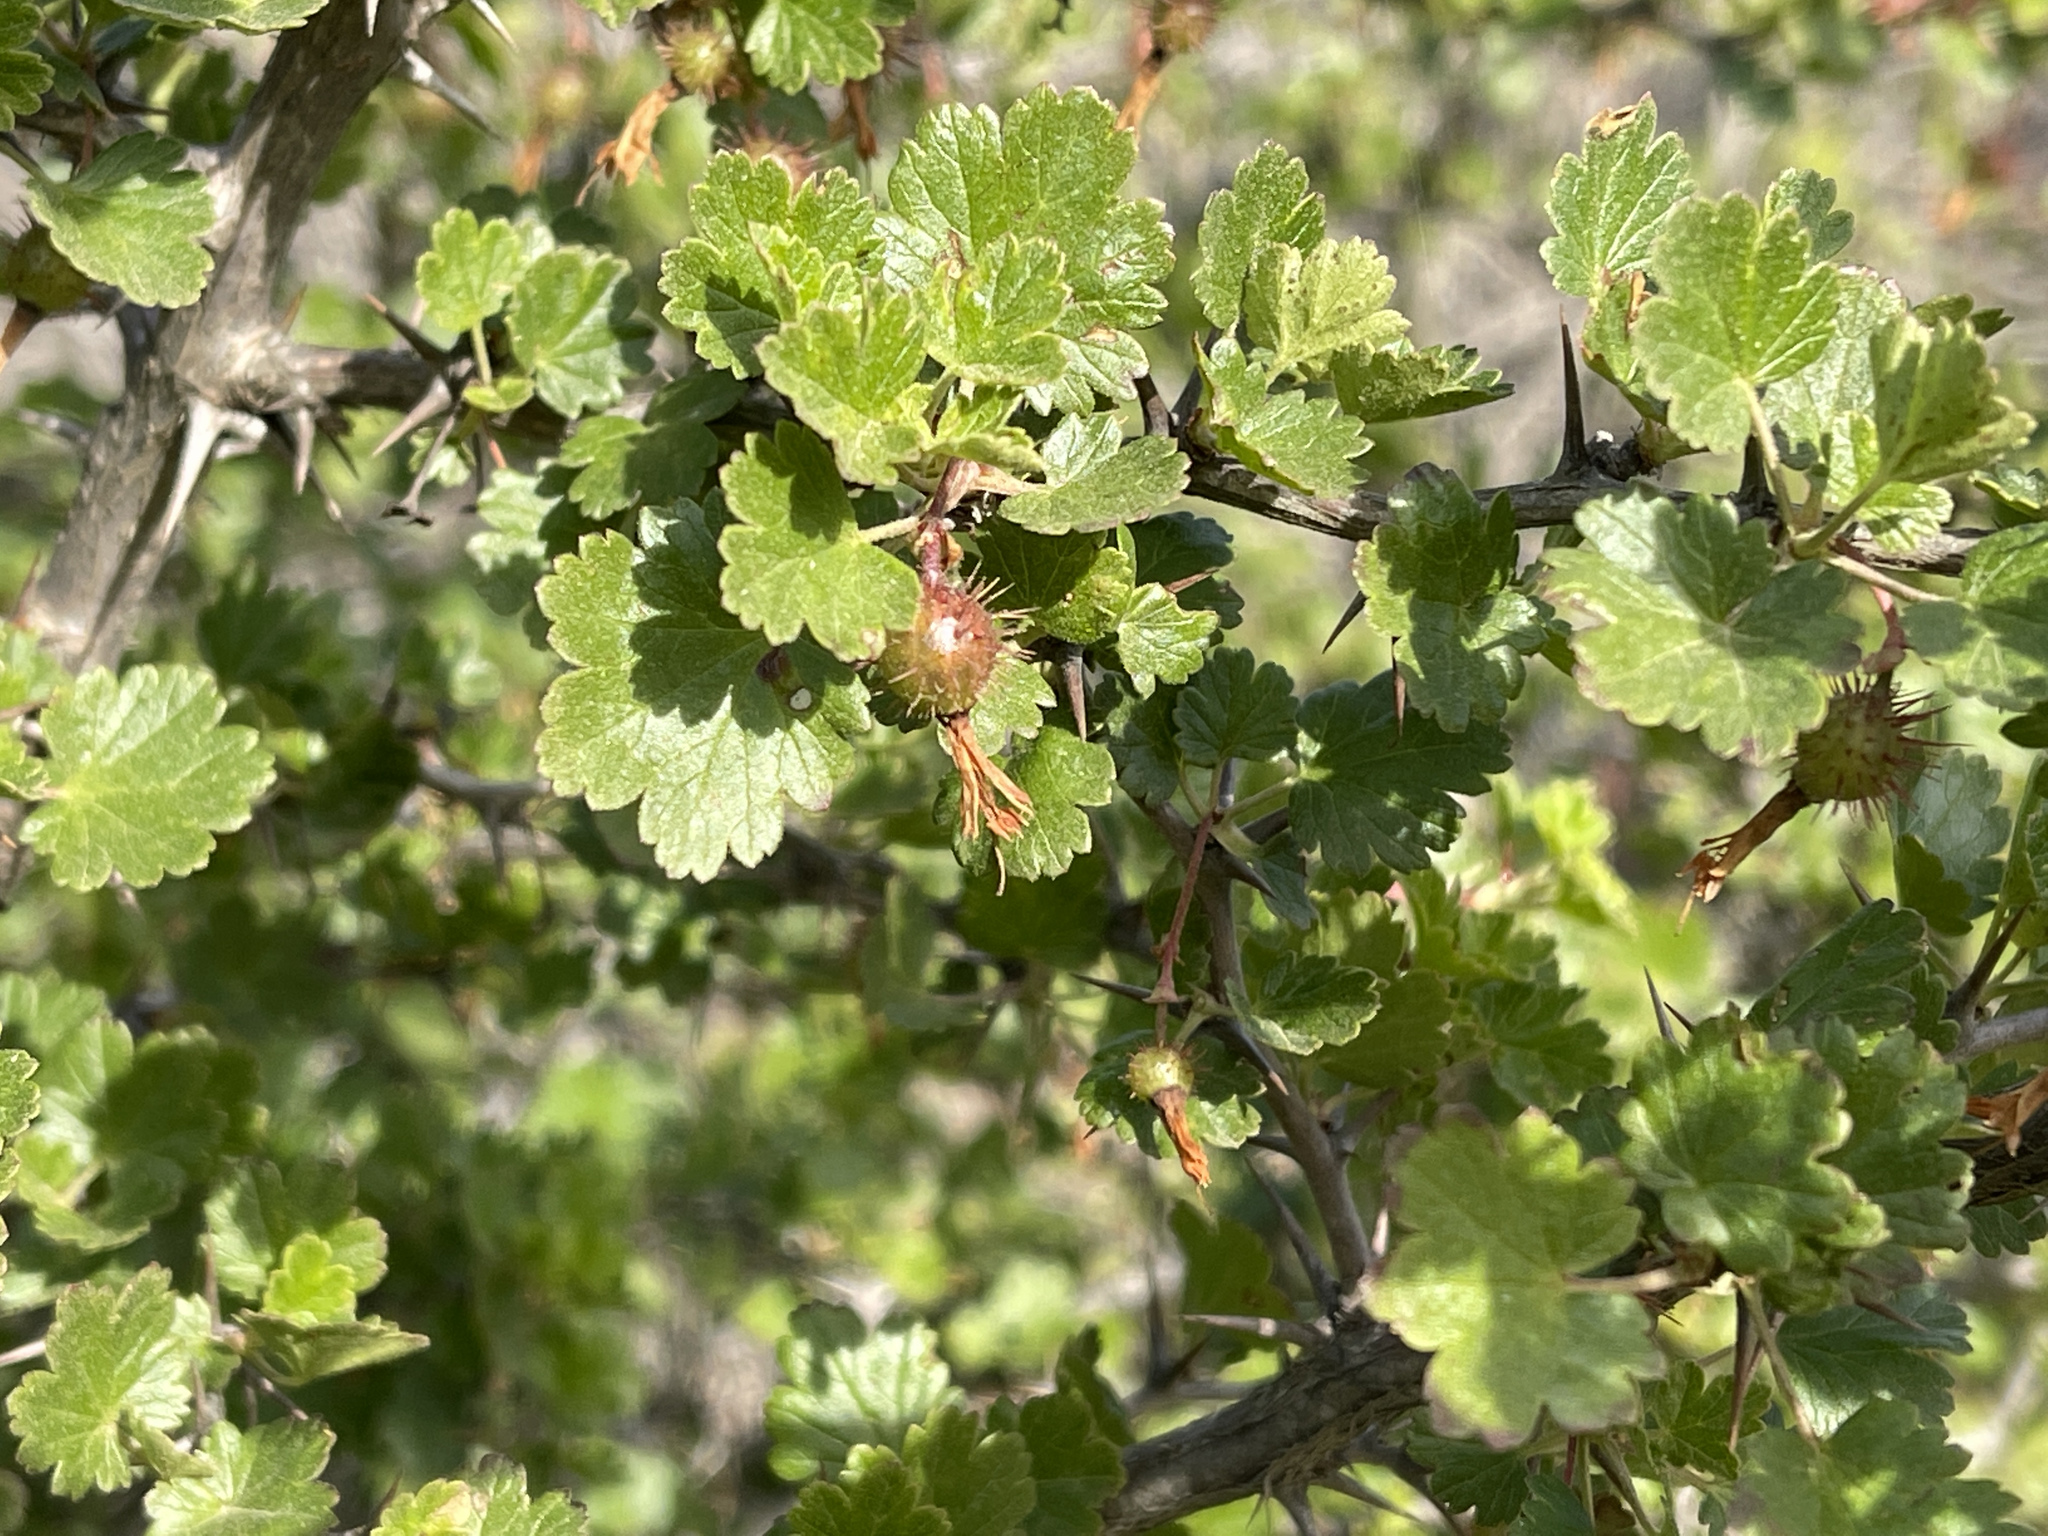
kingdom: Plantae
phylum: Tracheophyta
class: Magnoliopsida
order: Saxifragales
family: Grossulariaceae
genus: Ribes
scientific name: Ribes californicum
